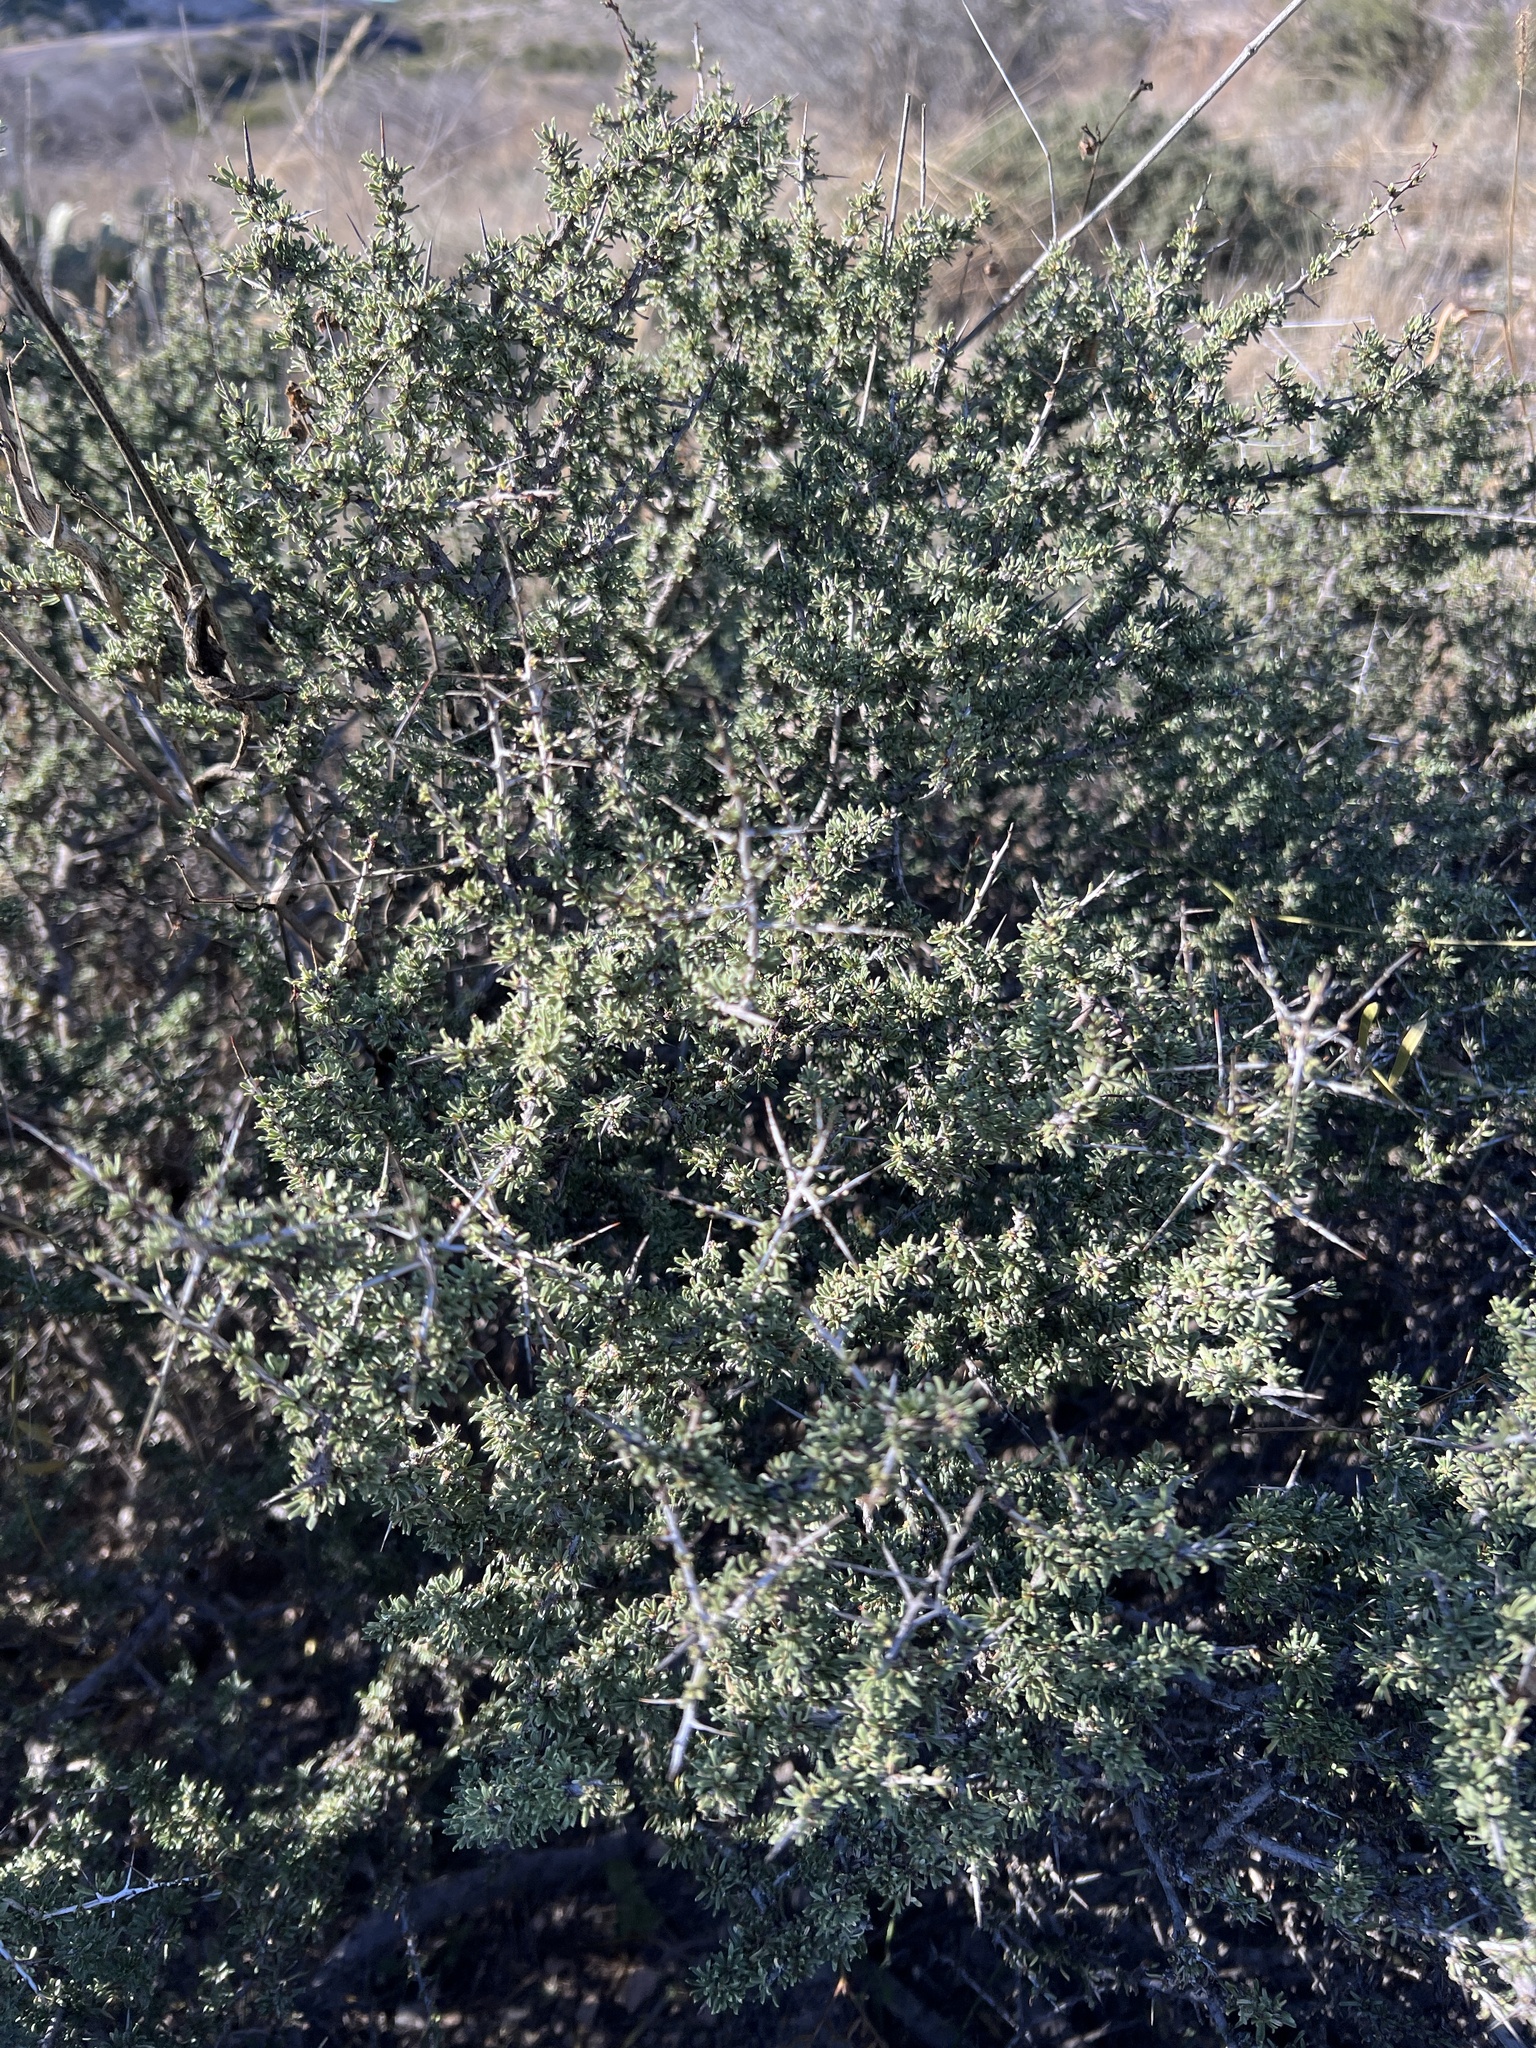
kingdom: Plantae
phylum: Tracheophyta
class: Magnoliopsida
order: Rosales
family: Rhamnaceae
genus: Condalia
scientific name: Condalia ericoides
